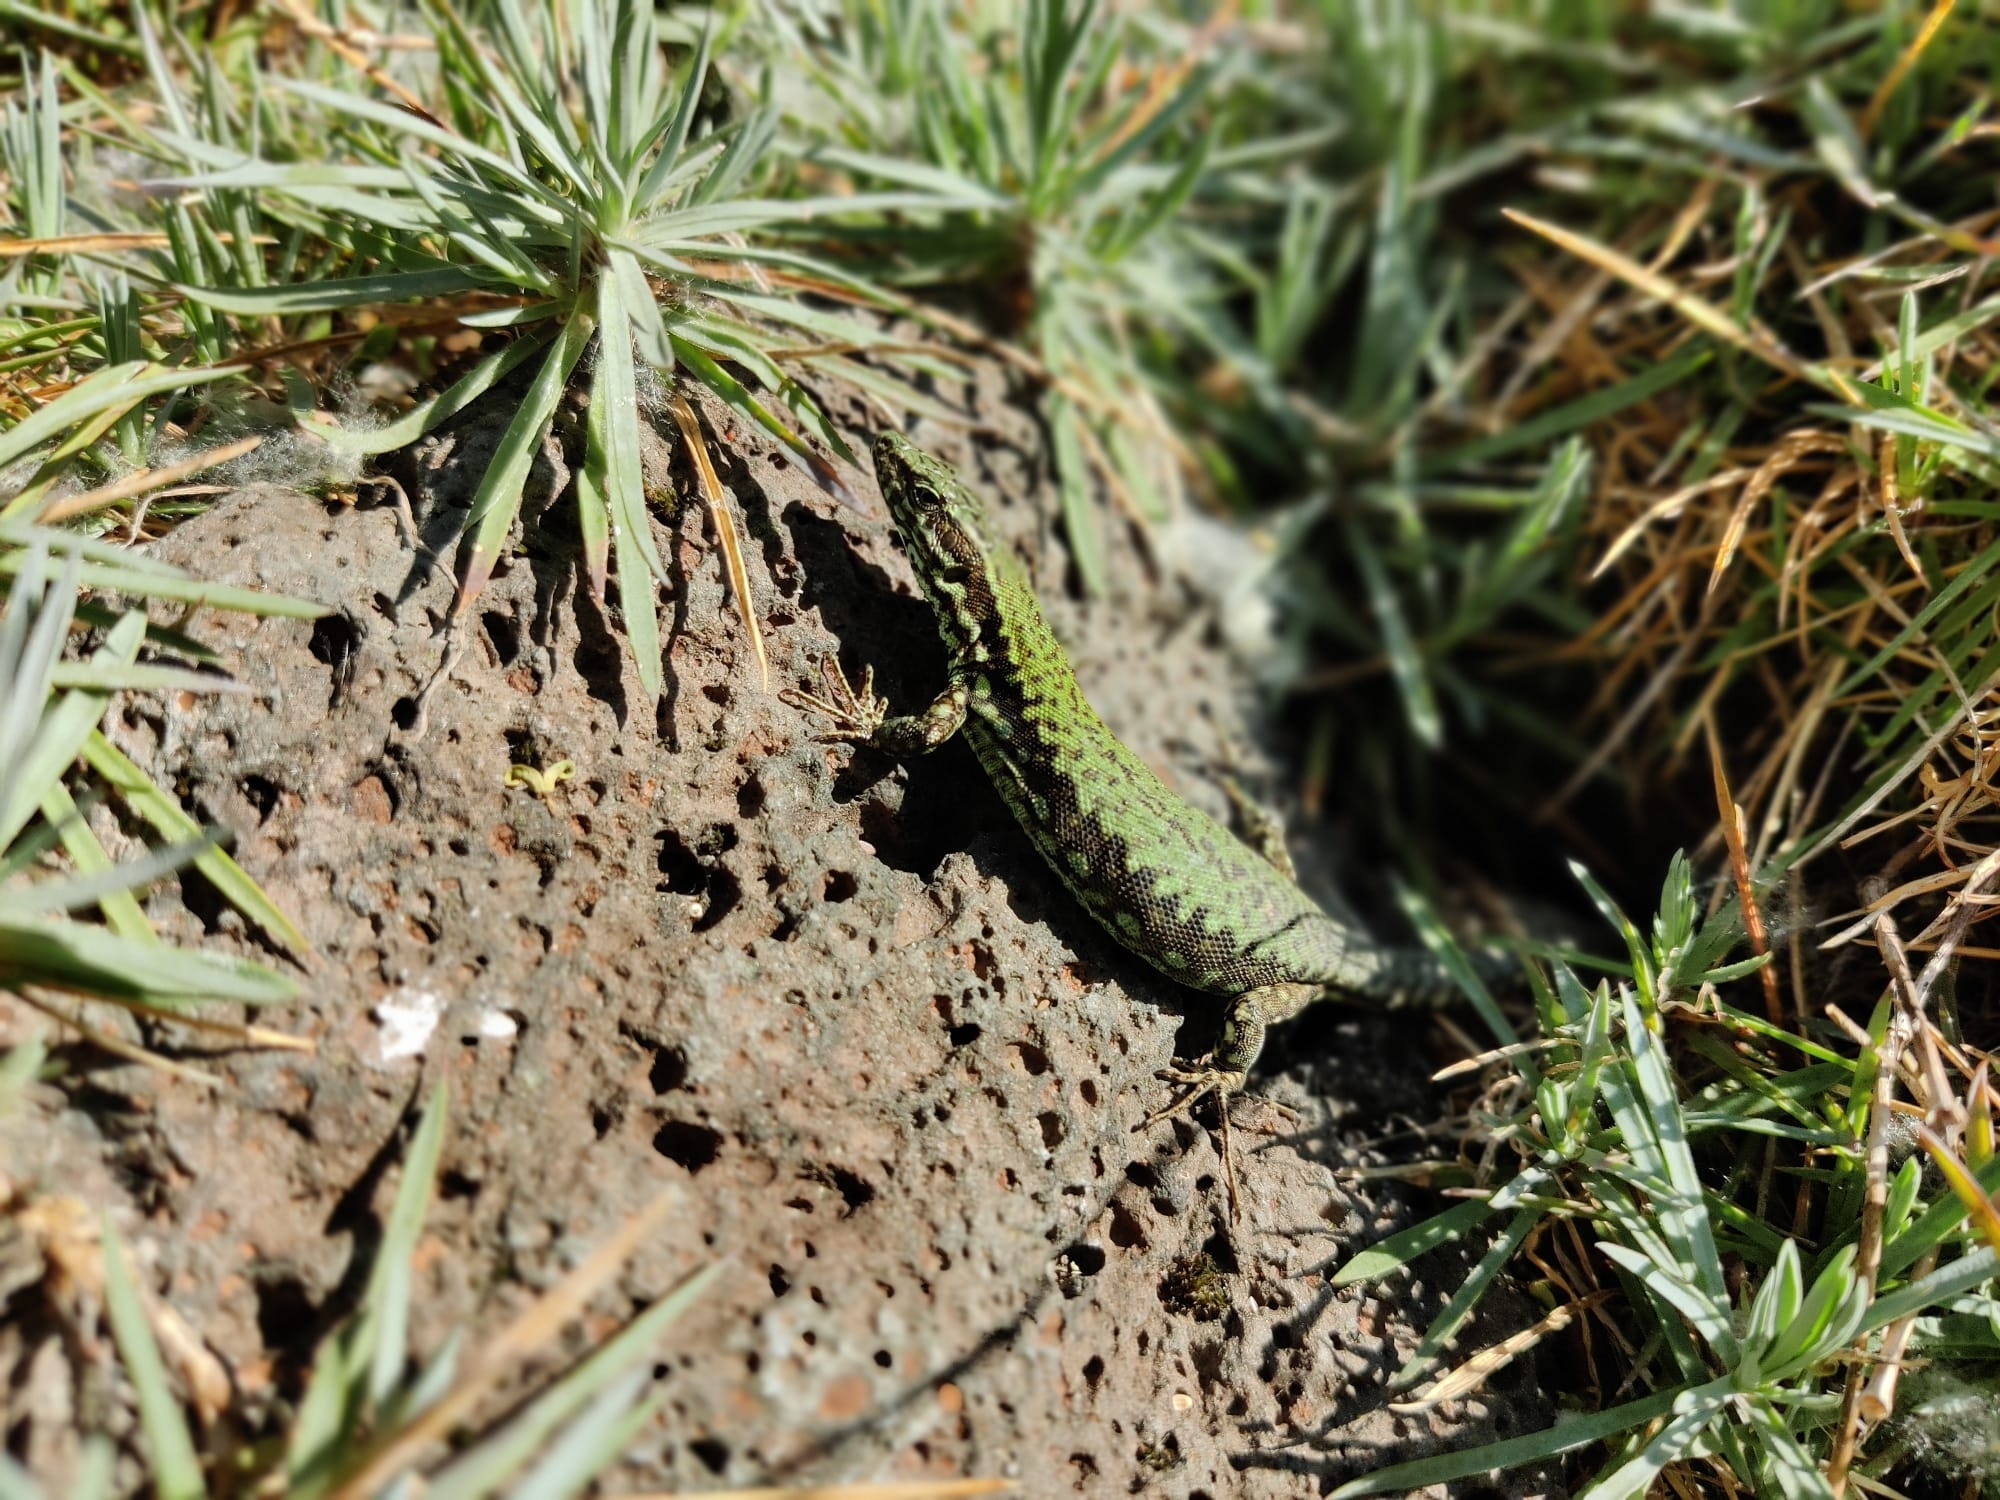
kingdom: Animalia
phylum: Chordata
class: Squamata
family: Lacertidae
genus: Podarcis
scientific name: Podarcis muralis
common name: Common wall lizard
